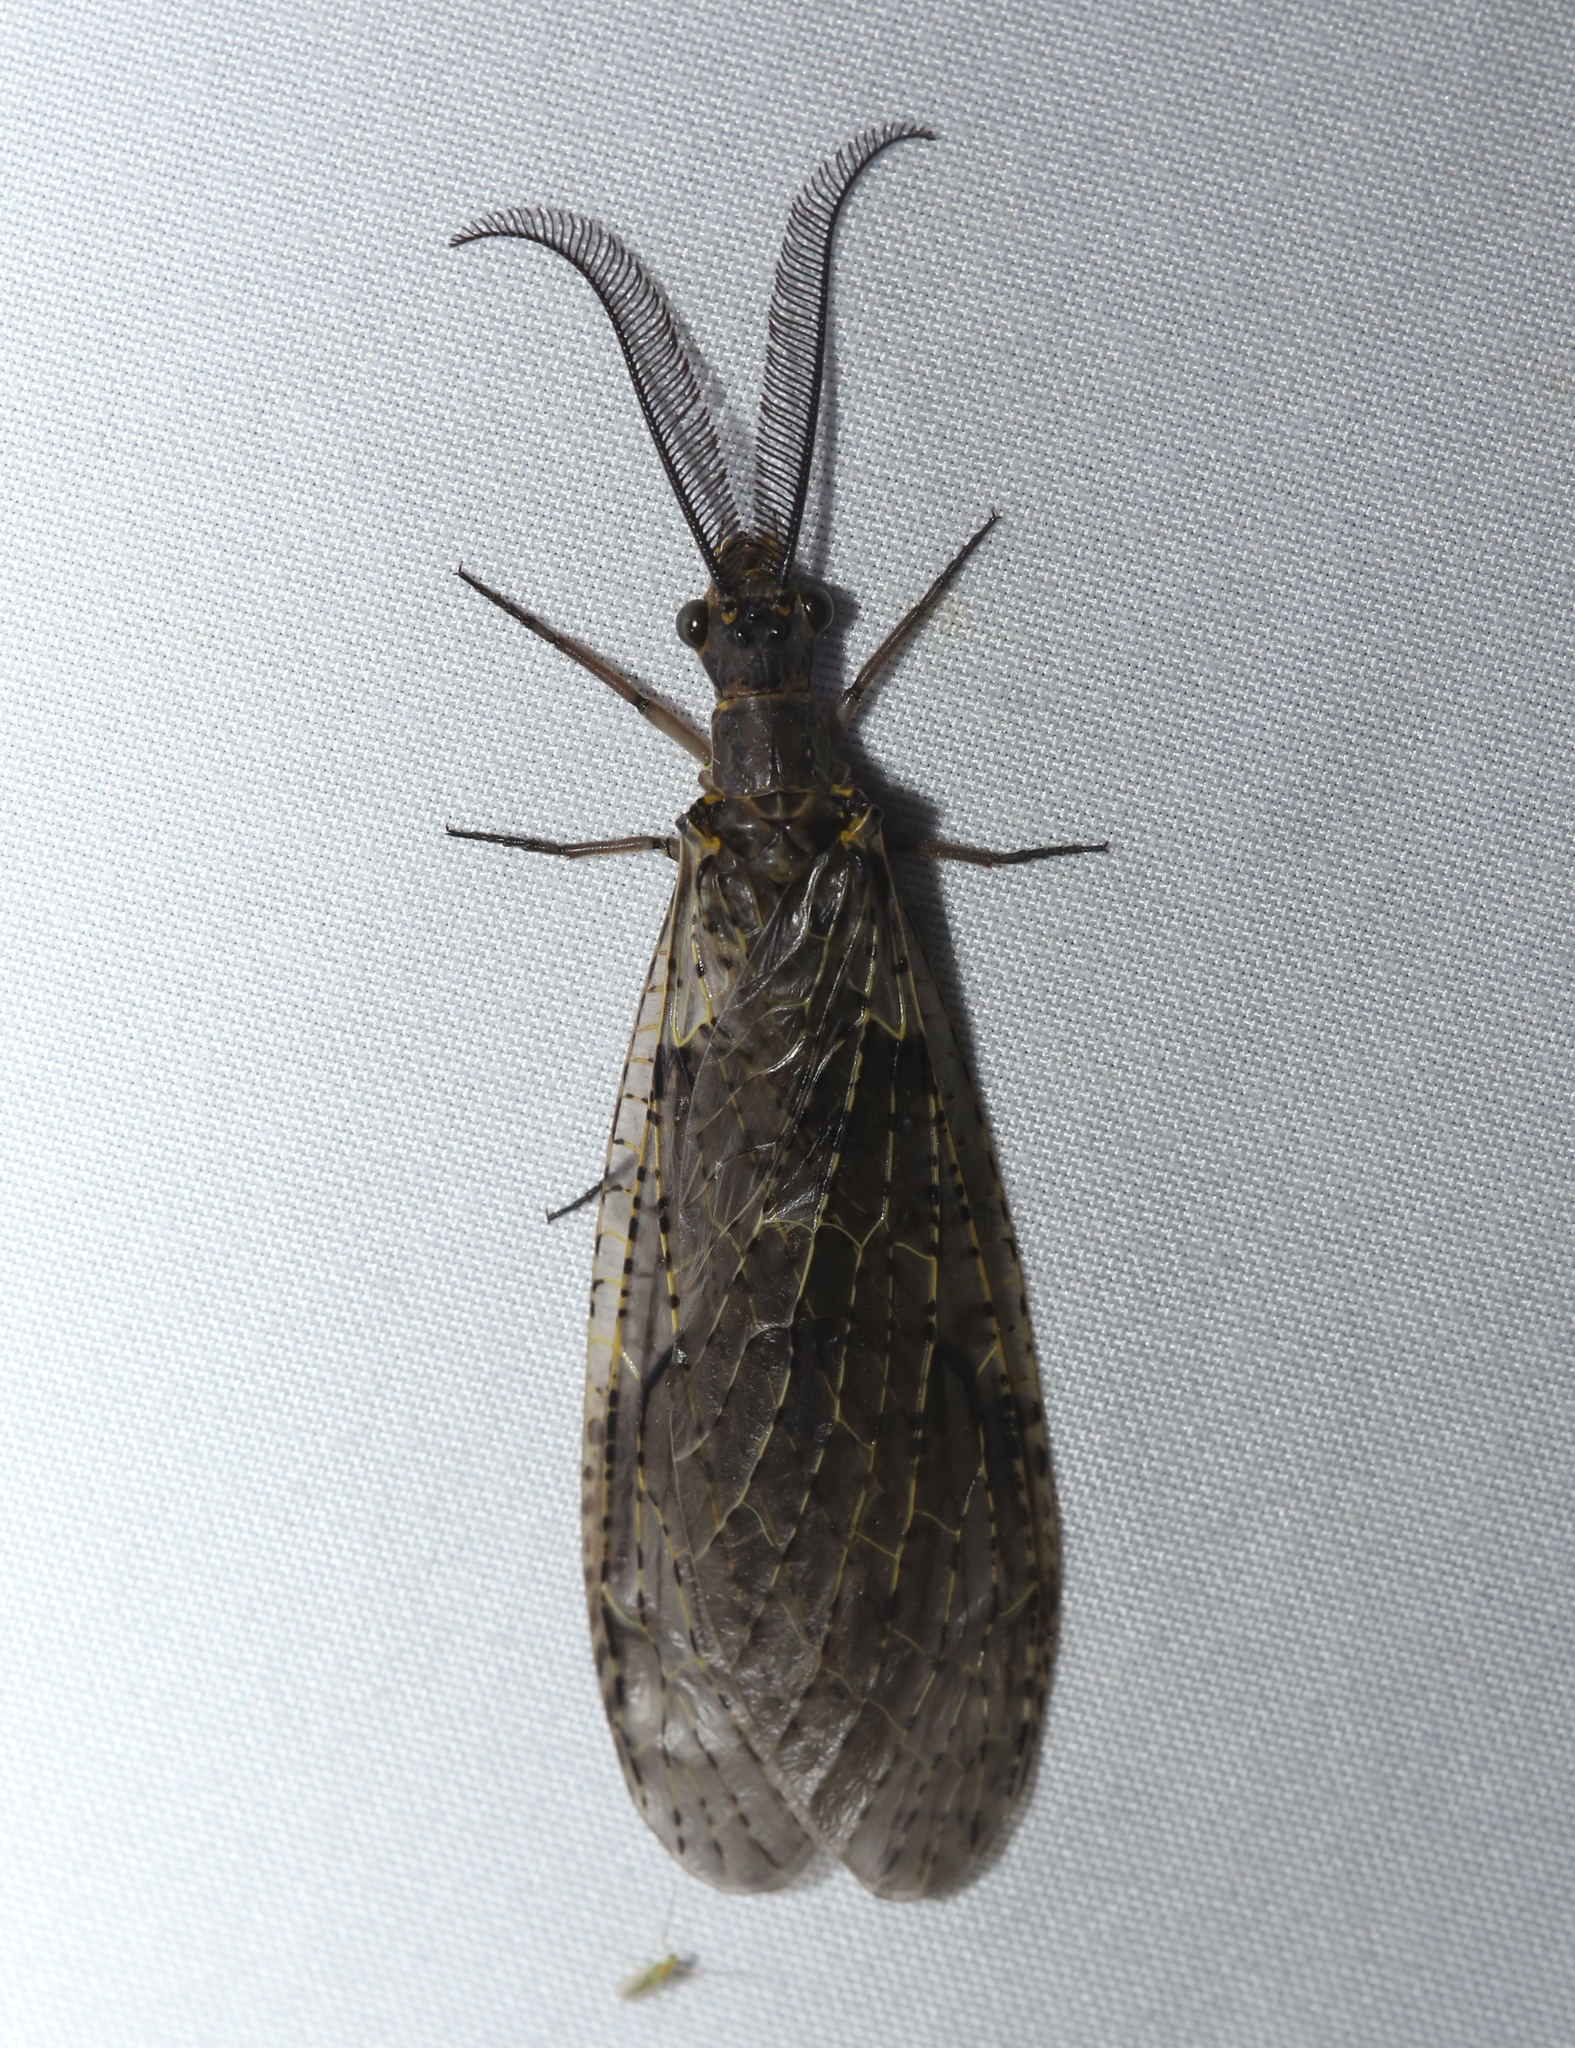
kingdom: Animalia
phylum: Arthropoda
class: Insecta
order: Megaloptera
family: Corydalidae
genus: Chauliodes
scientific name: Chauliodes rastricornis
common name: Spring fishfly
